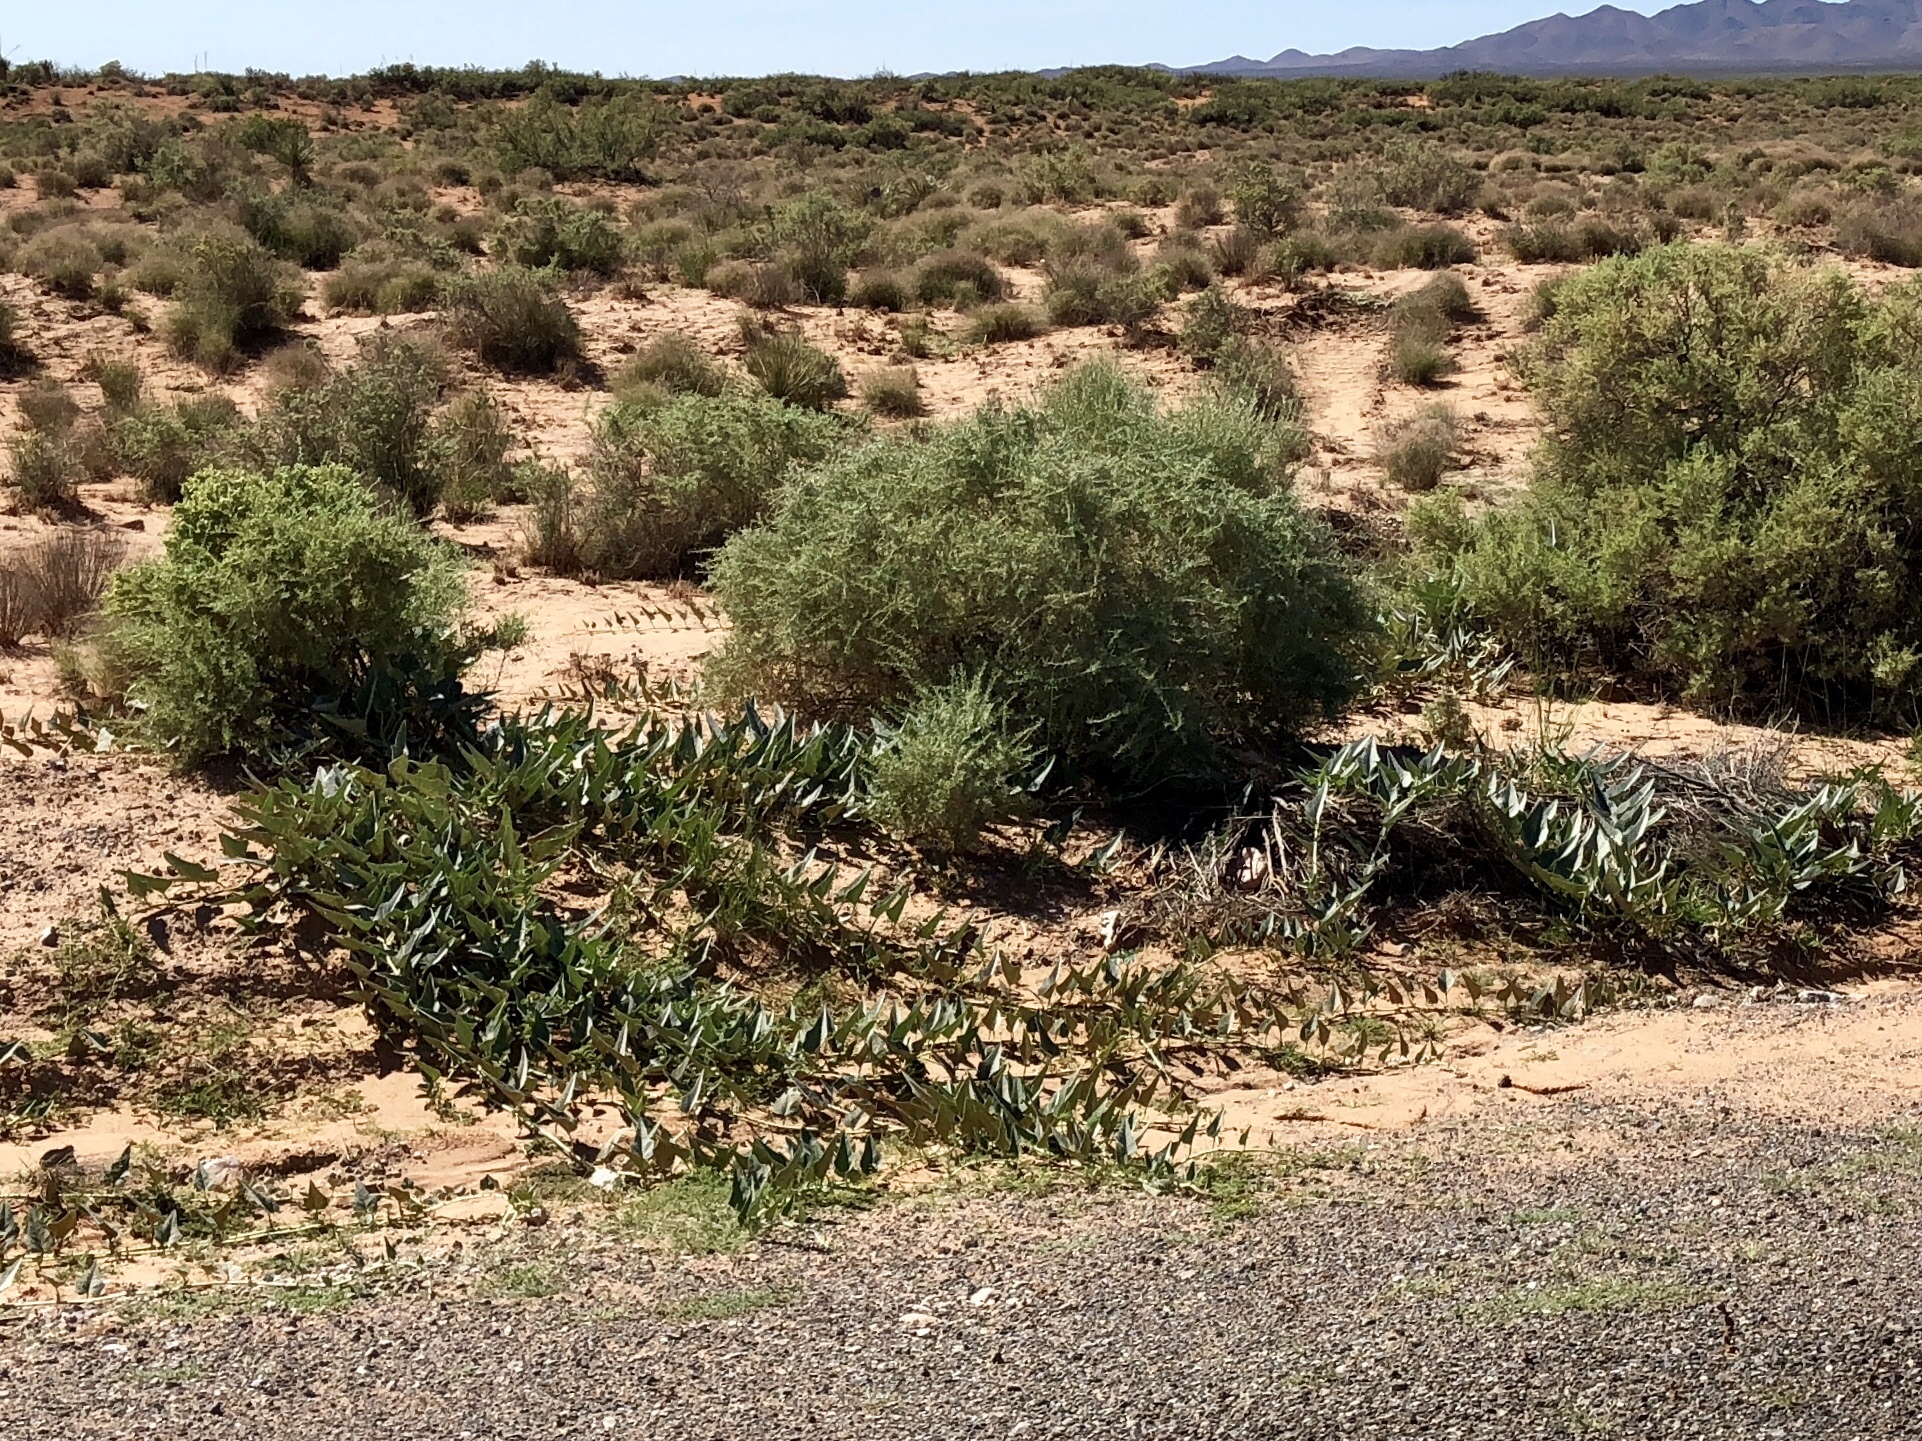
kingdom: Plantae
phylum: Tracheophyta
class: Magnoliopsida
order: Cucurbitales
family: Cucurbitaceae
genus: Cucurbita
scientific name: Cucurbita foetidissima
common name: Buffalo gourd
